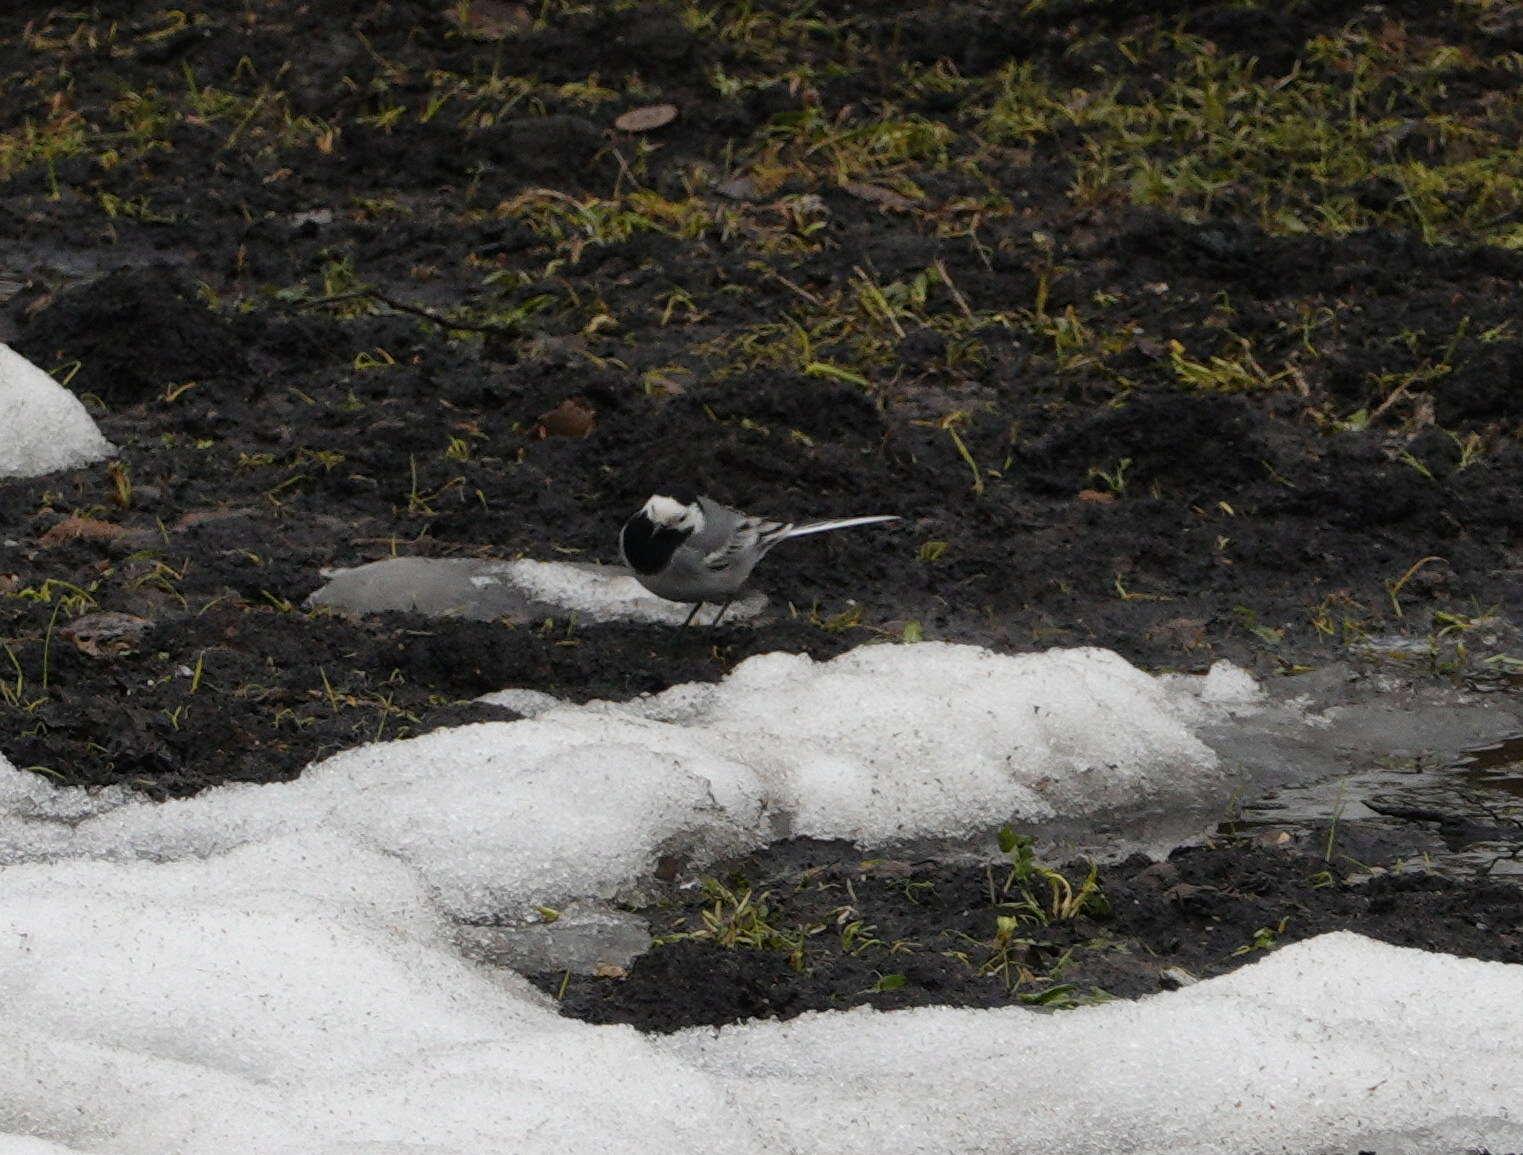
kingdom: Animalia
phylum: Chordata
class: Aves
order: Passeriformes
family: Motacillidae
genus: Motacilla
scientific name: Motacilla alba
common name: White wagtail
